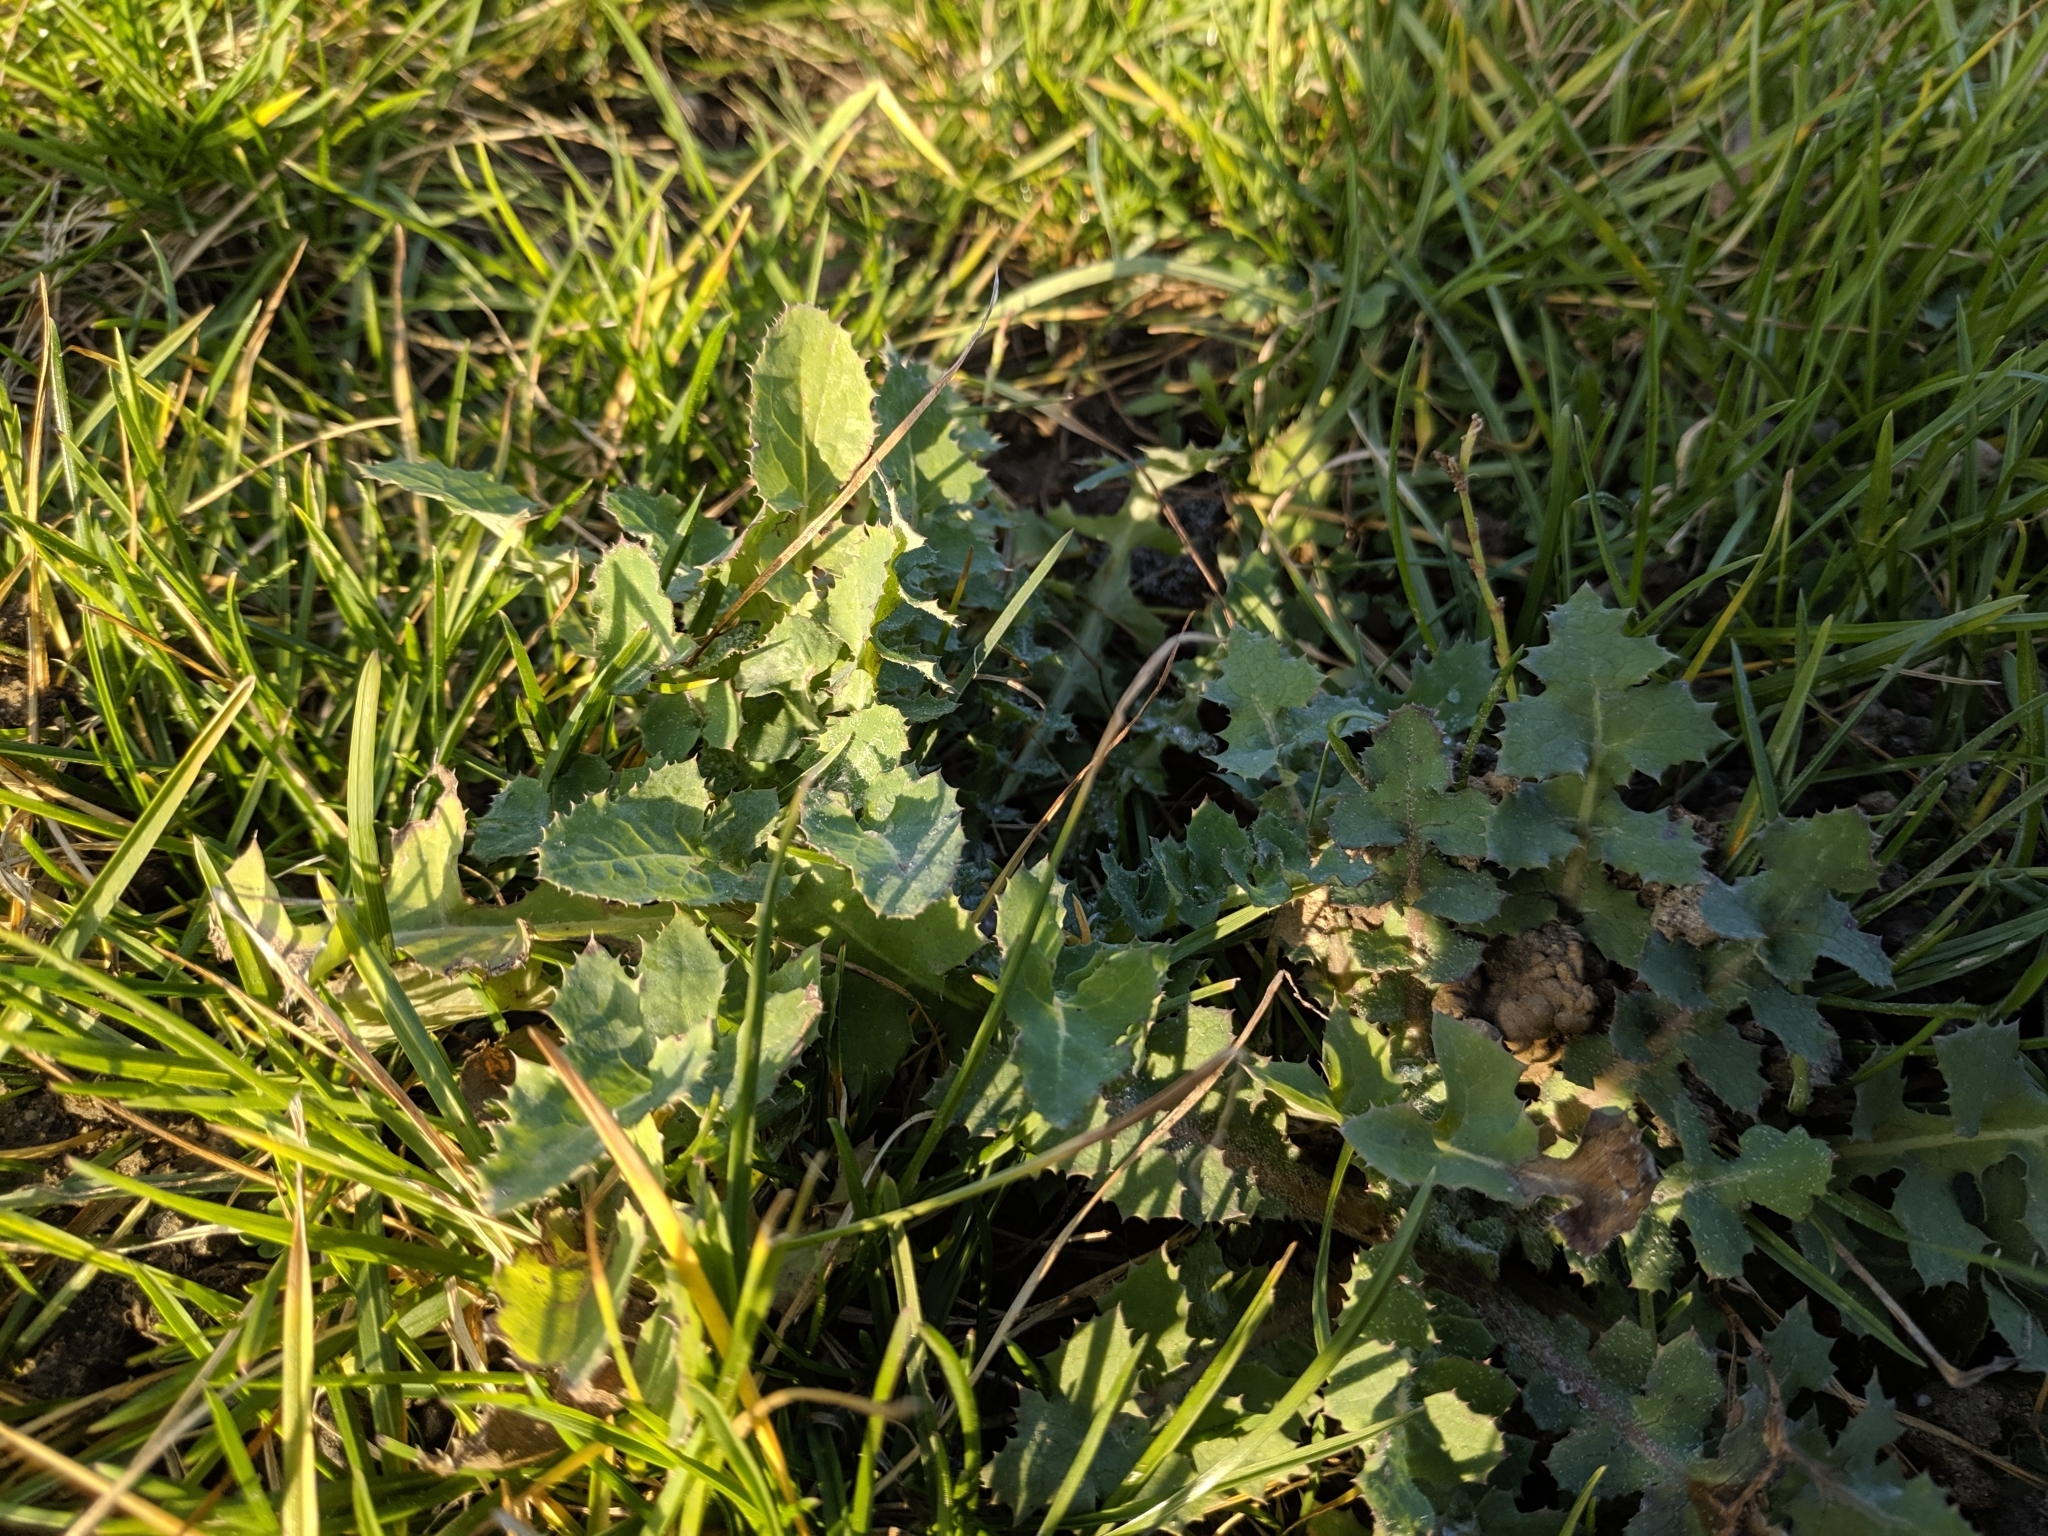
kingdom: Plantae
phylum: Tracheophyta
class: Magnoliopsida
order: Asterales
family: Asteraceae
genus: Sonchus
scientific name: Sonchus oleraceus
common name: Common sowthistle
